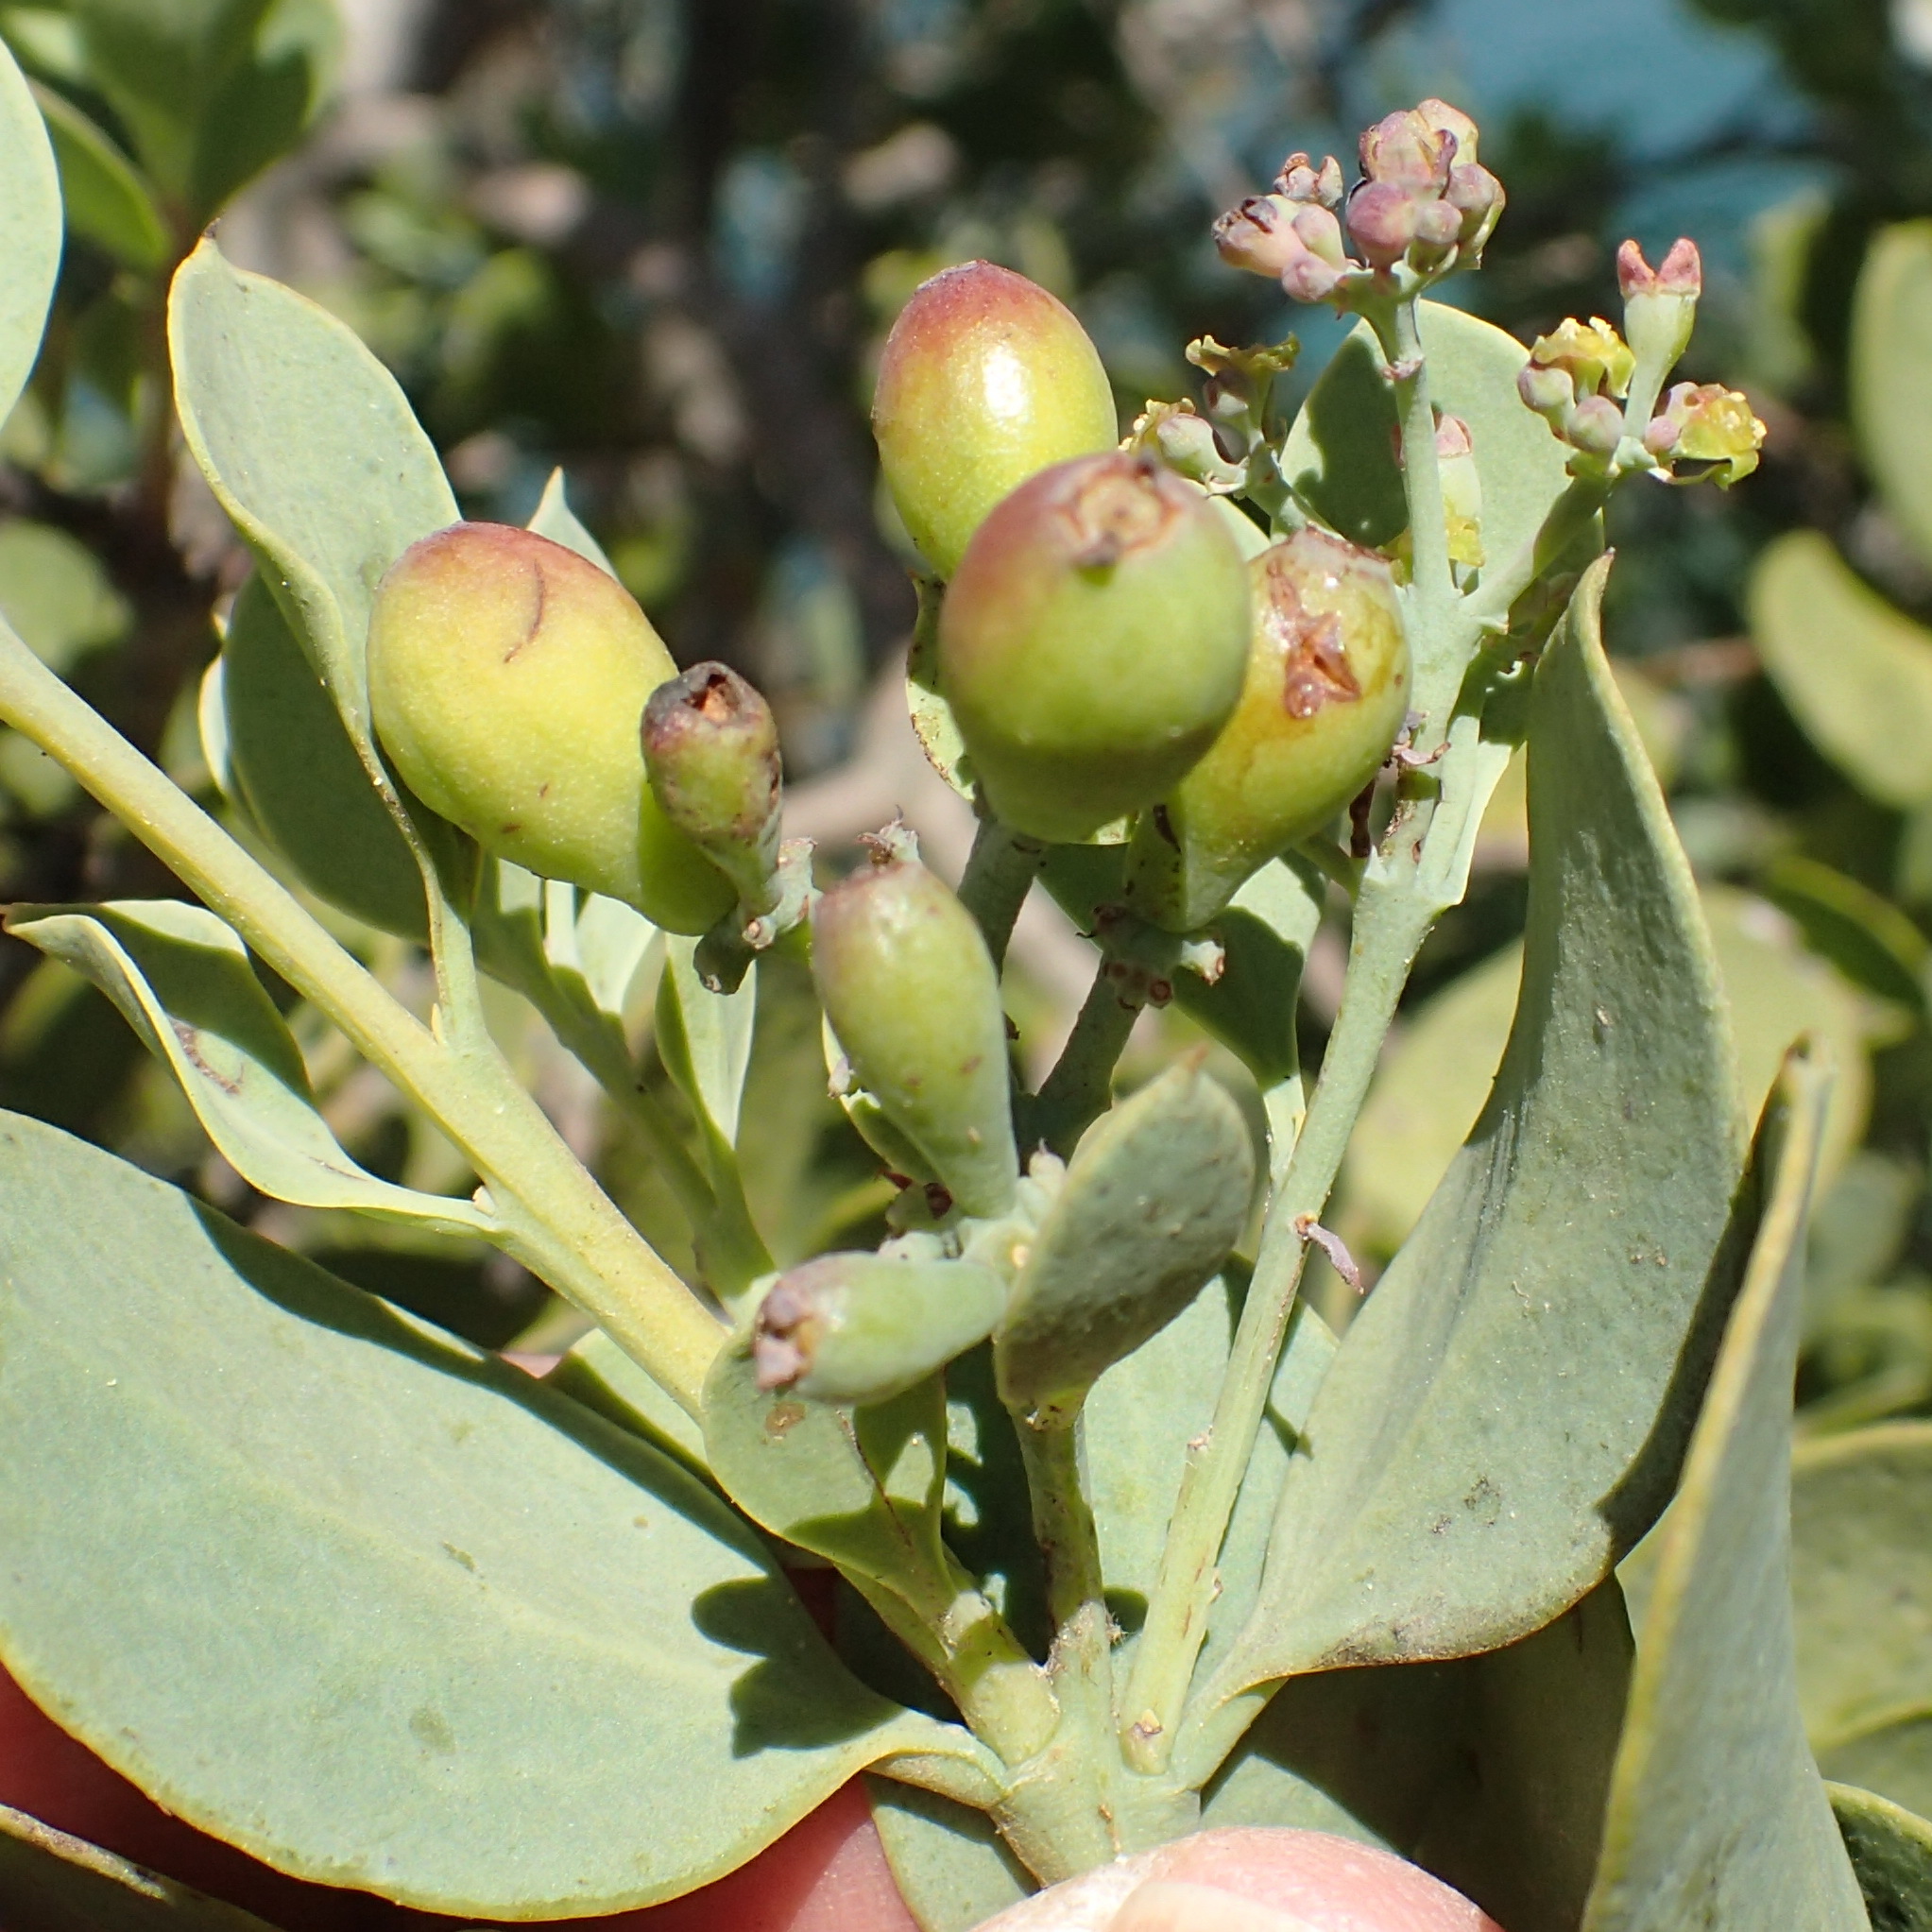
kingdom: Plantae
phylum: Tracheophyta
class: Magnoliopsida
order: Santalales
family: Santalaceae
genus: Osyris
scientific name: Osyris compressa
